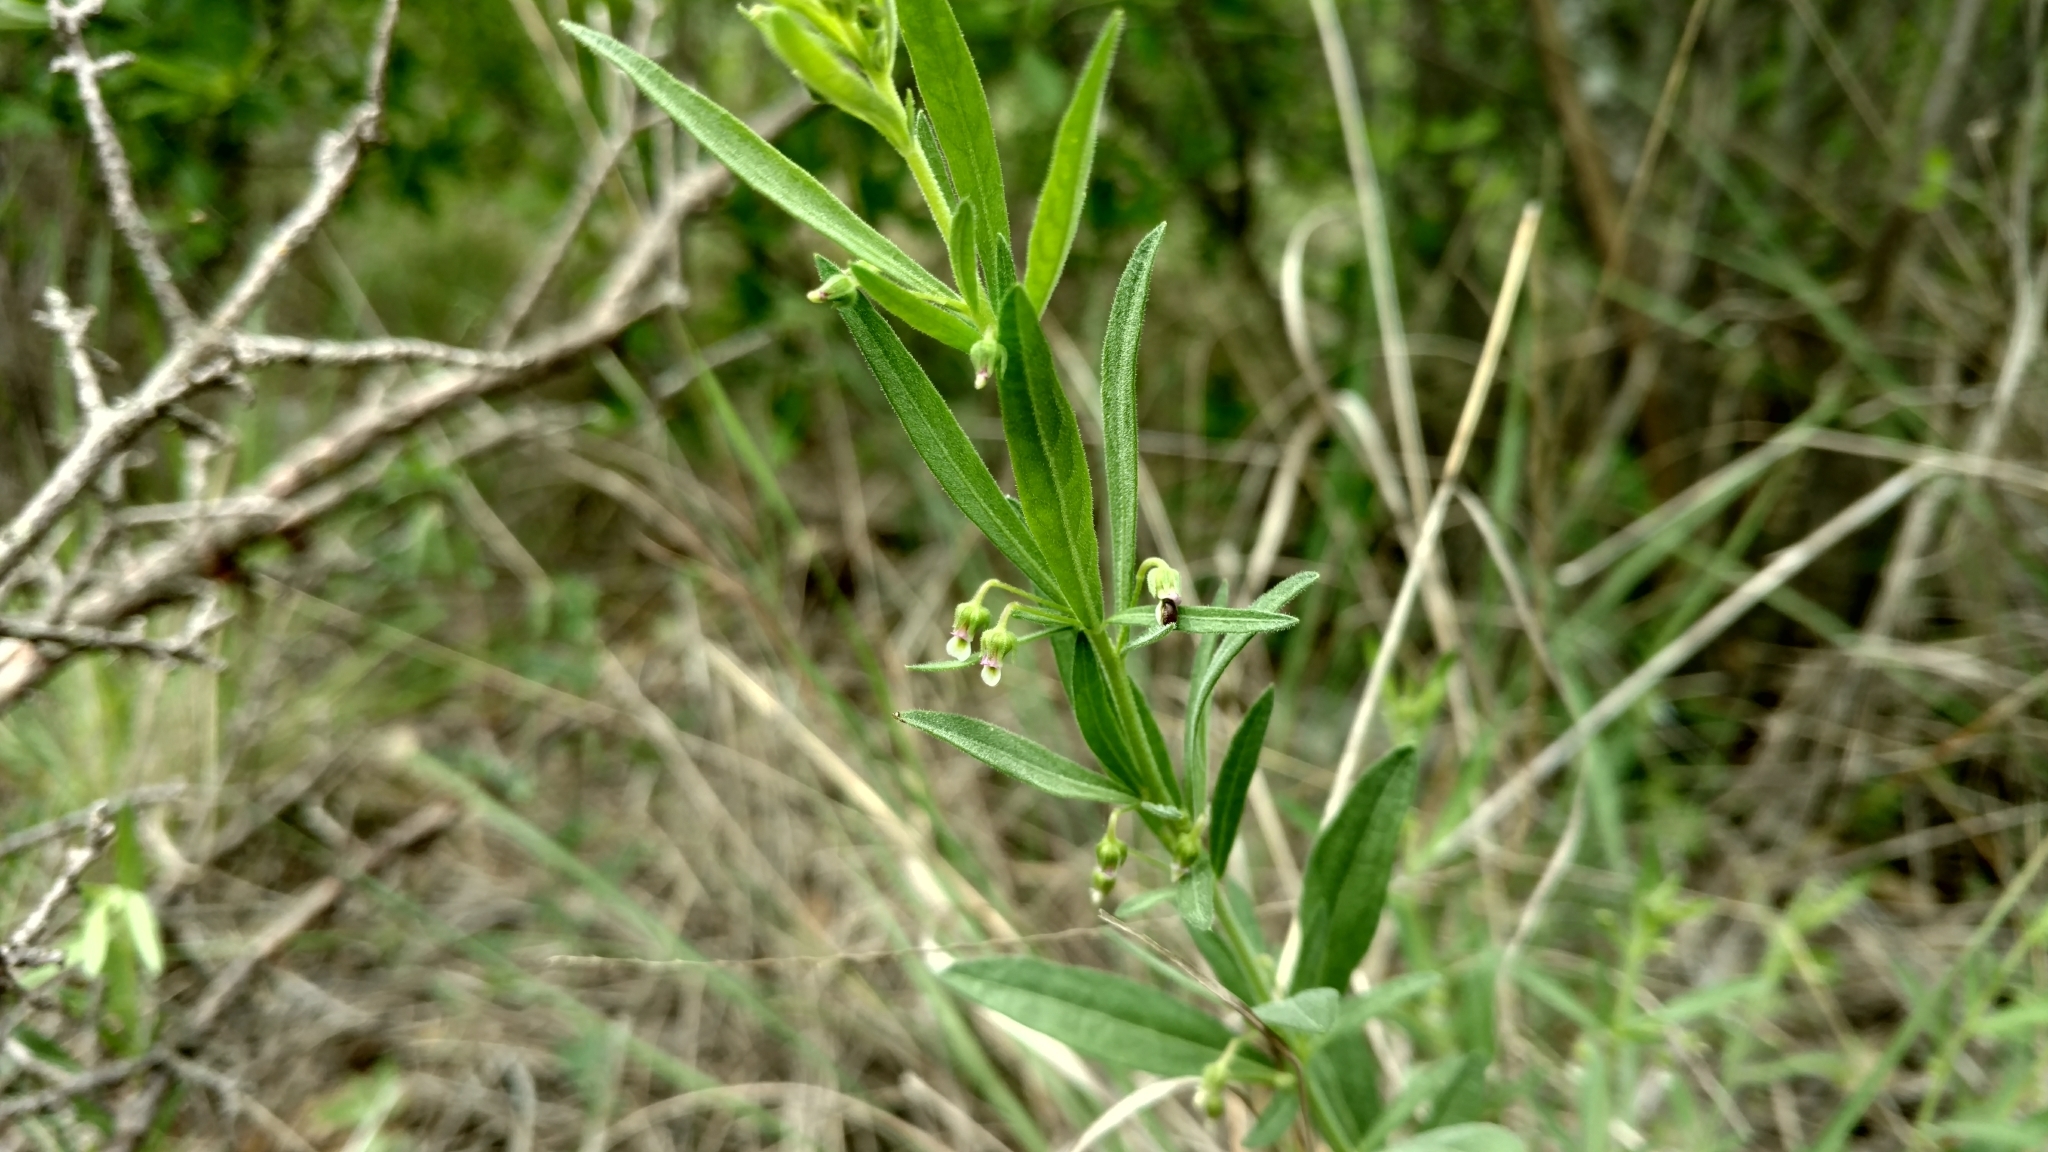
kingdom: Plantae
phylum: Tracheophyta
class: Magnoliopsida
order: Malpighiales
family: Violaceae
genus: Pombalia
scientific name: Pombalia verticillata
